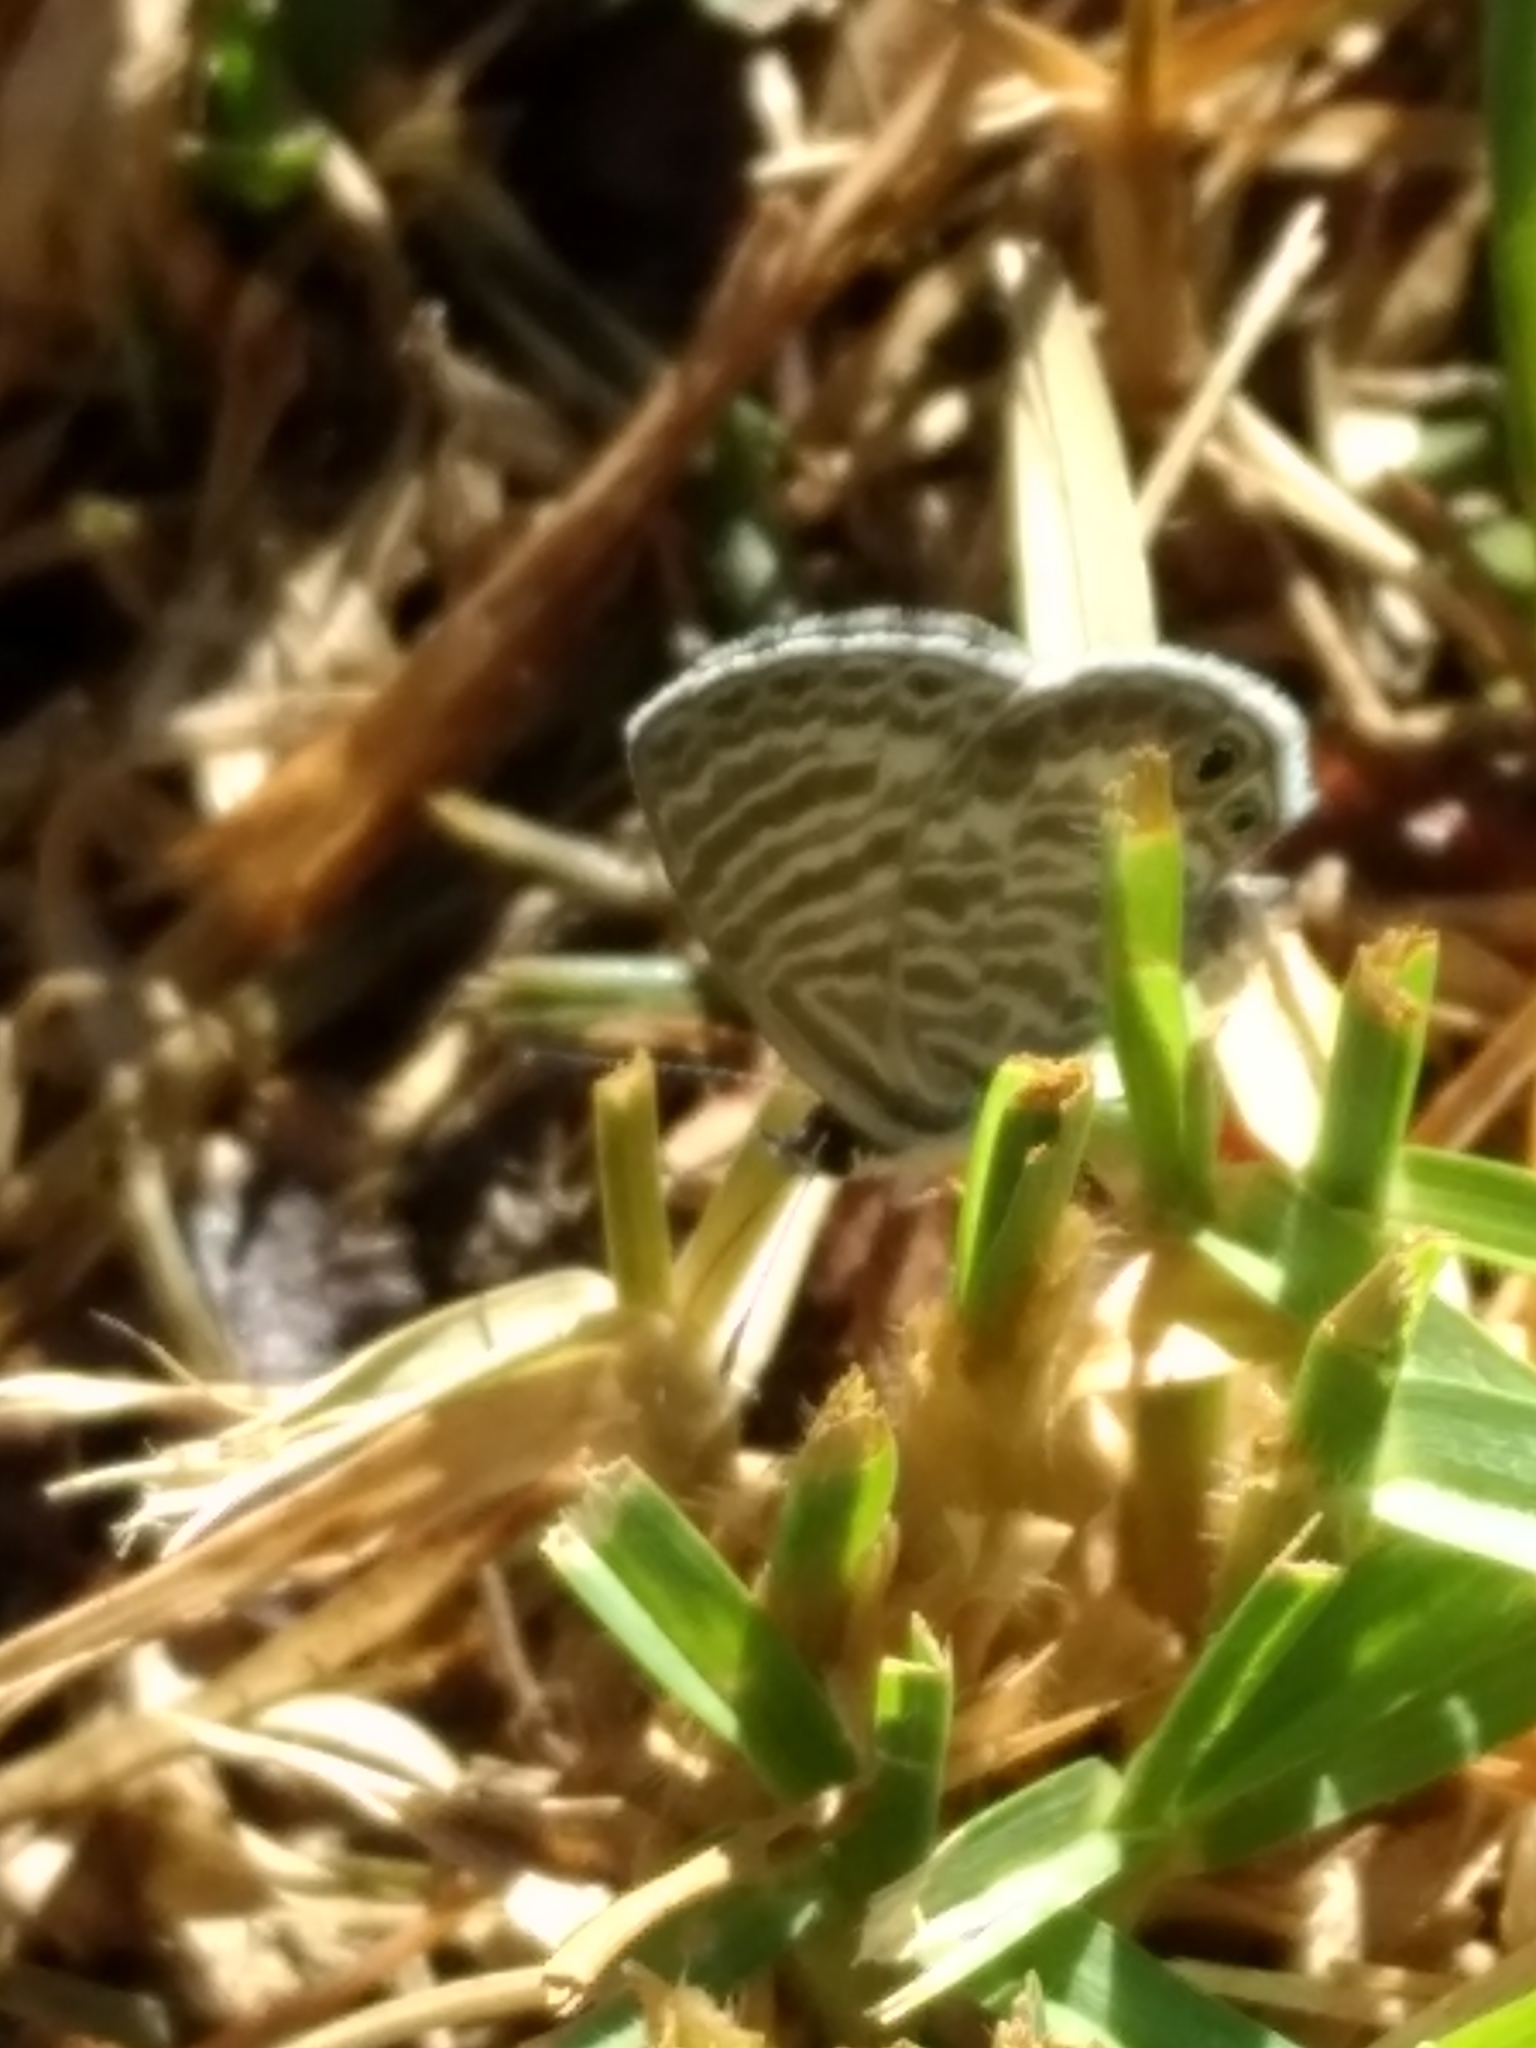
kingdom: Animalia
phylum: Arthropoda
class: Insecta
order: Lepidoptera
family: Lycaenidae
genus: Leptotes
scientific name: Leptotes marina
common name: Marine blue
